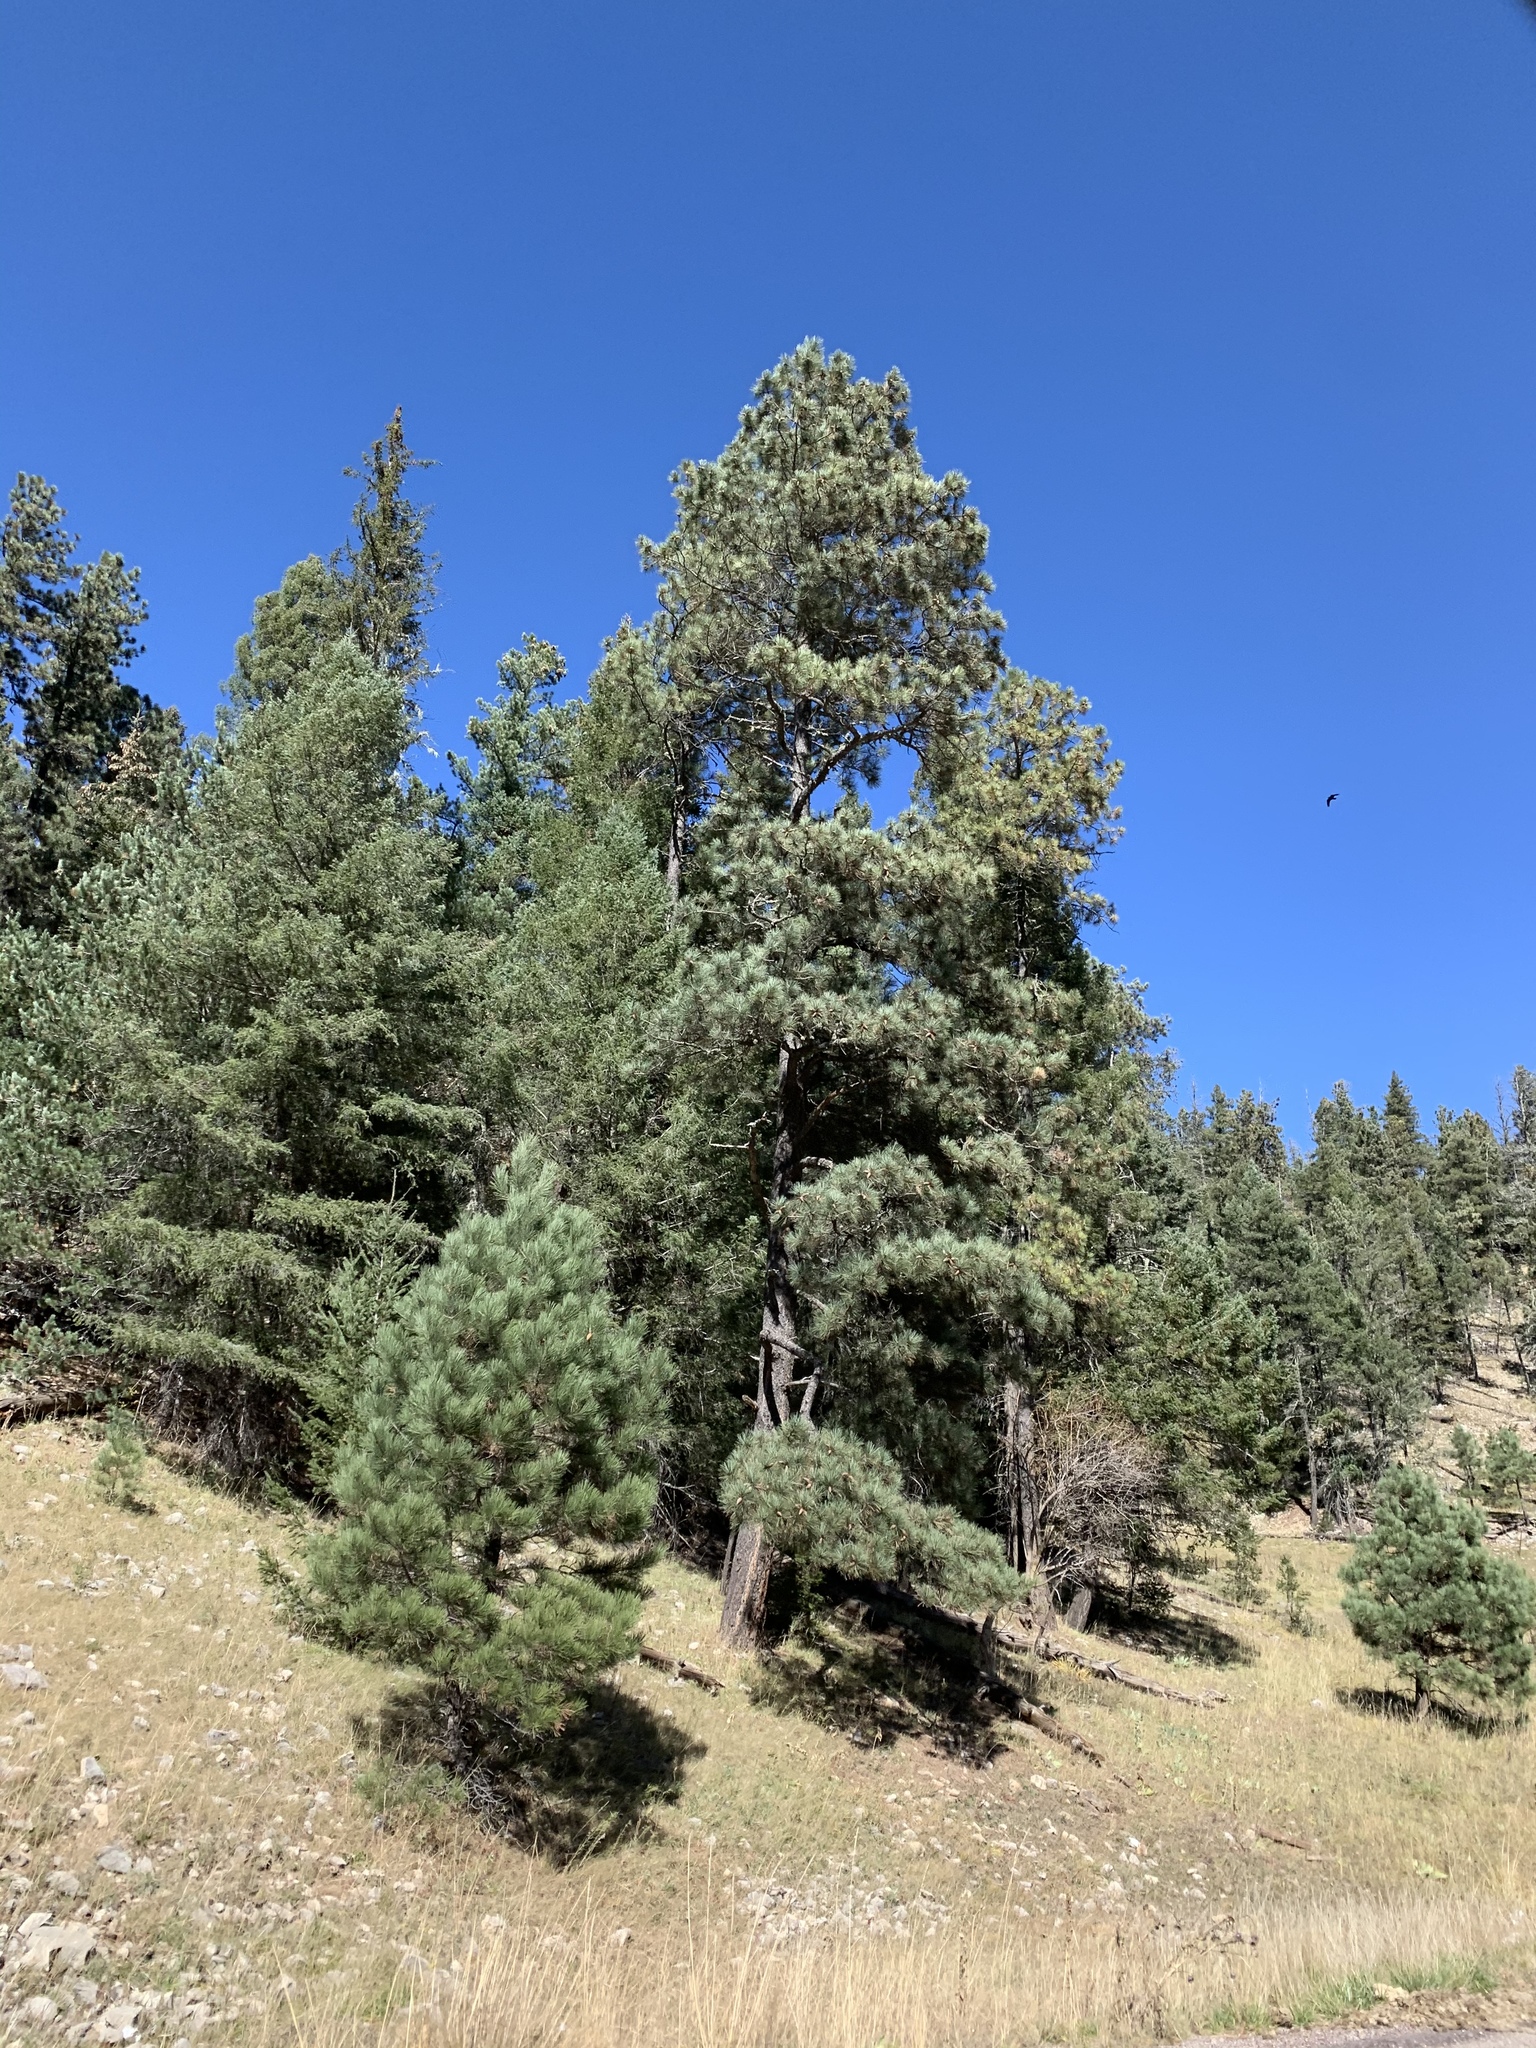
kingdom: Plantae
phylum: Tracheophyta
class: Pinopsida
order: Pinales
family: Pinaceae
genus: Pinus
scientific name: Pinus ponderosa
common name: Western yellow-pine
